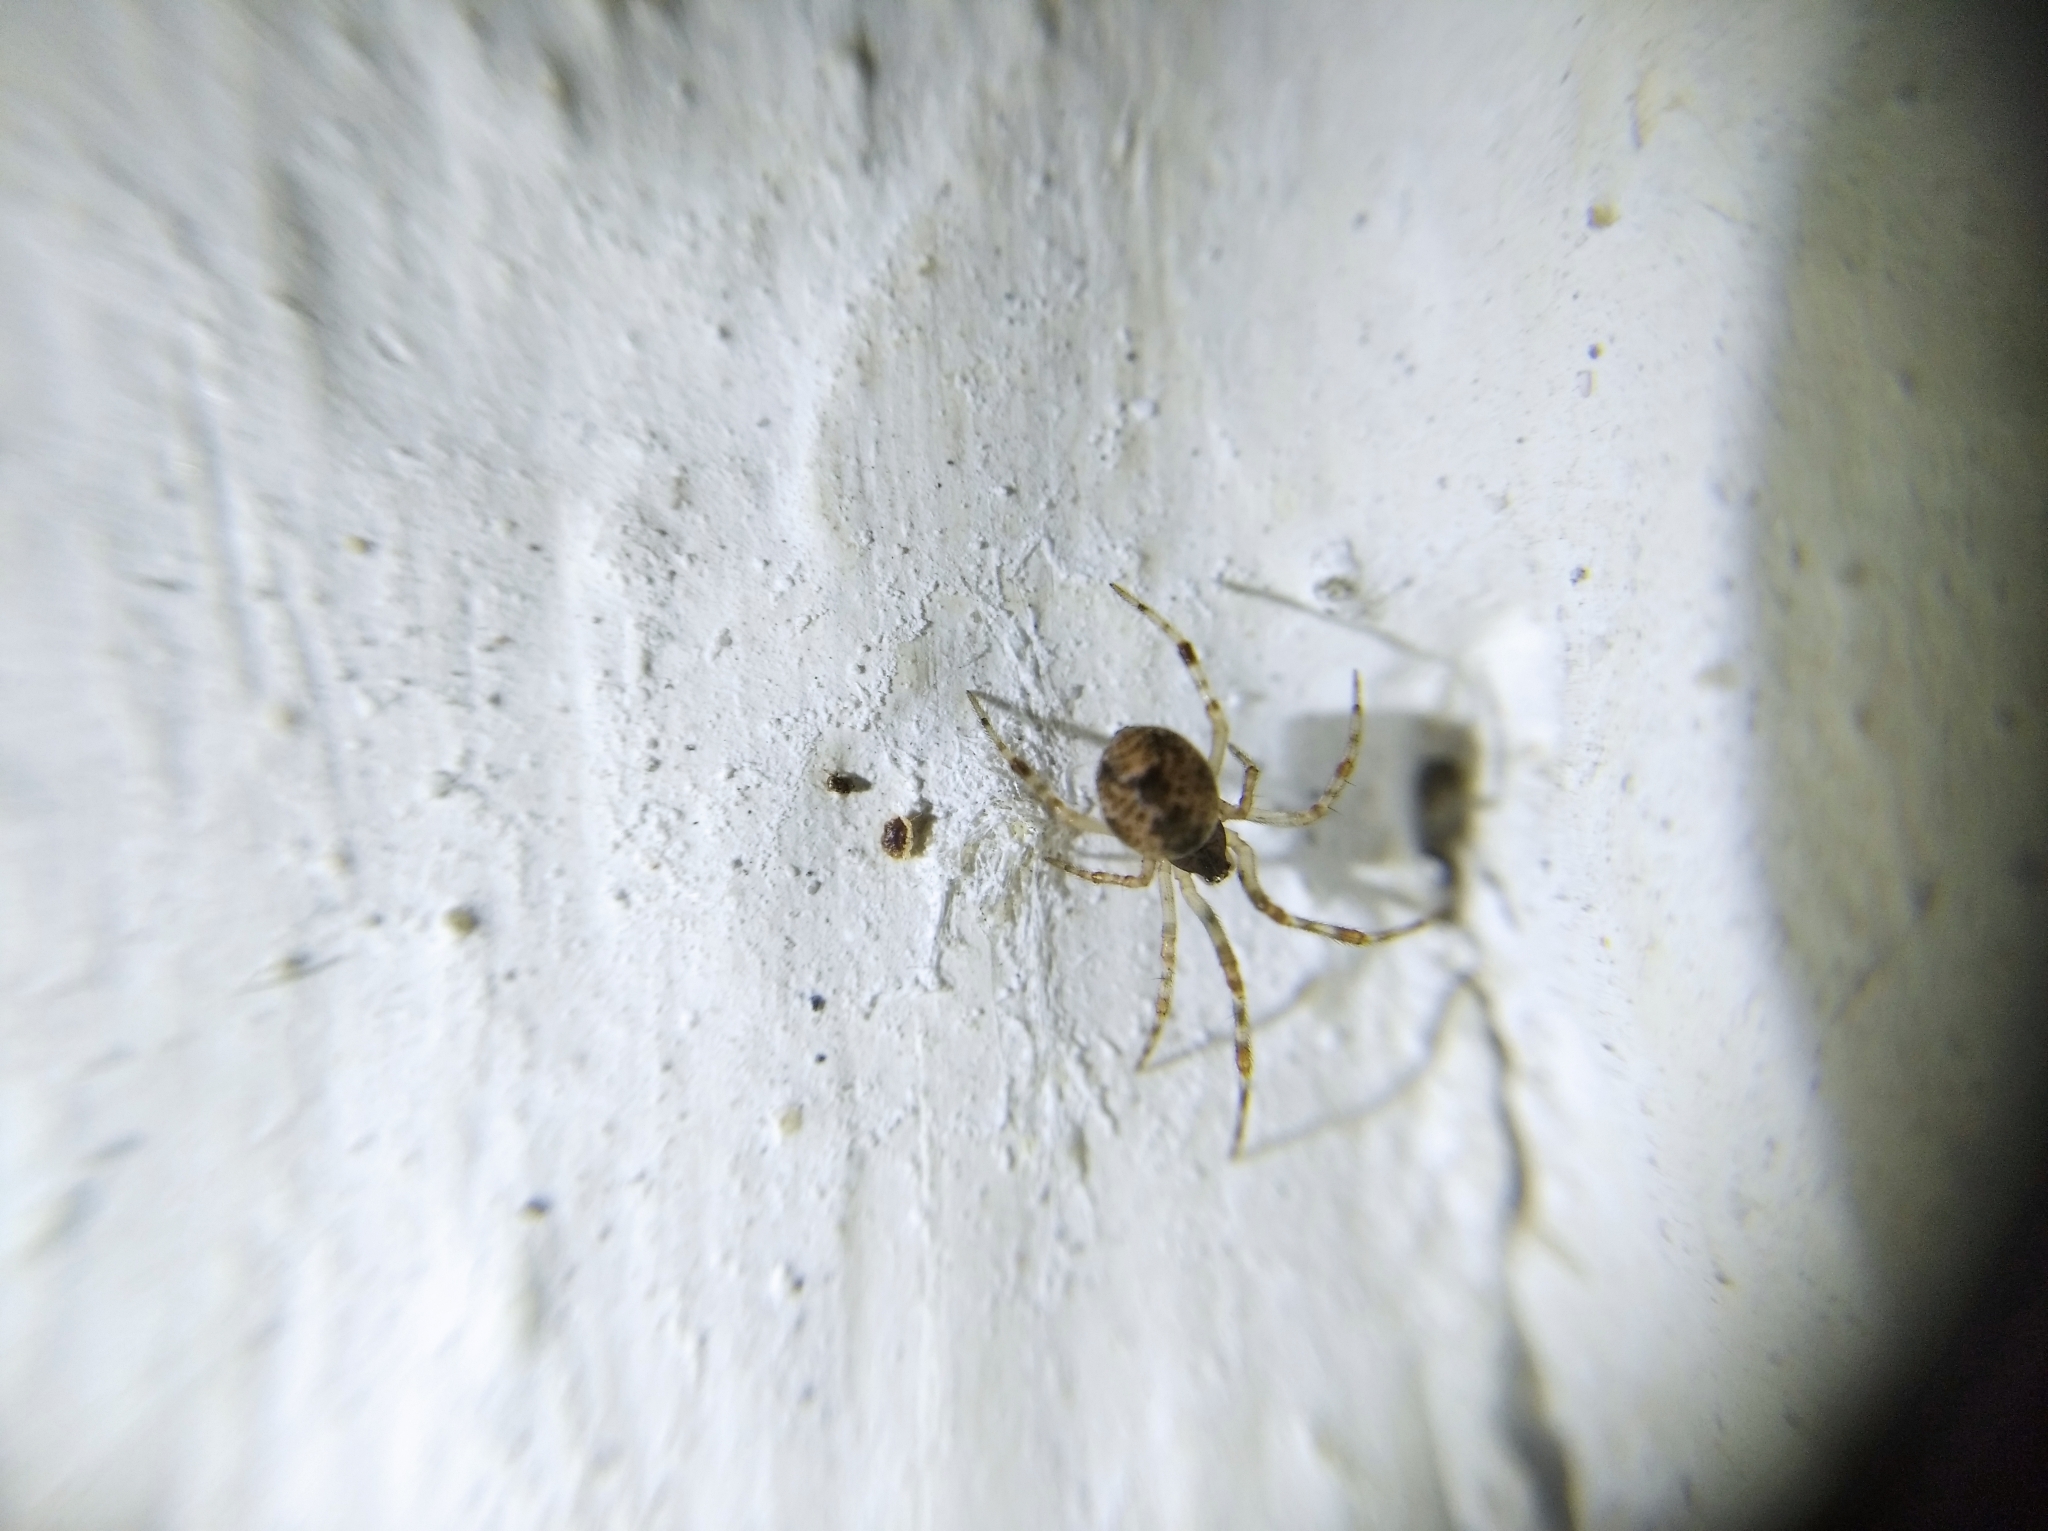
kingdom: Animalia
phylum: Arthropoda
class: Arachnida
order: Araneae
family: Theridiidae
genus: Parasteatoda
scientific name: Parasteatoda tepidariorum
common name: Common house spider
